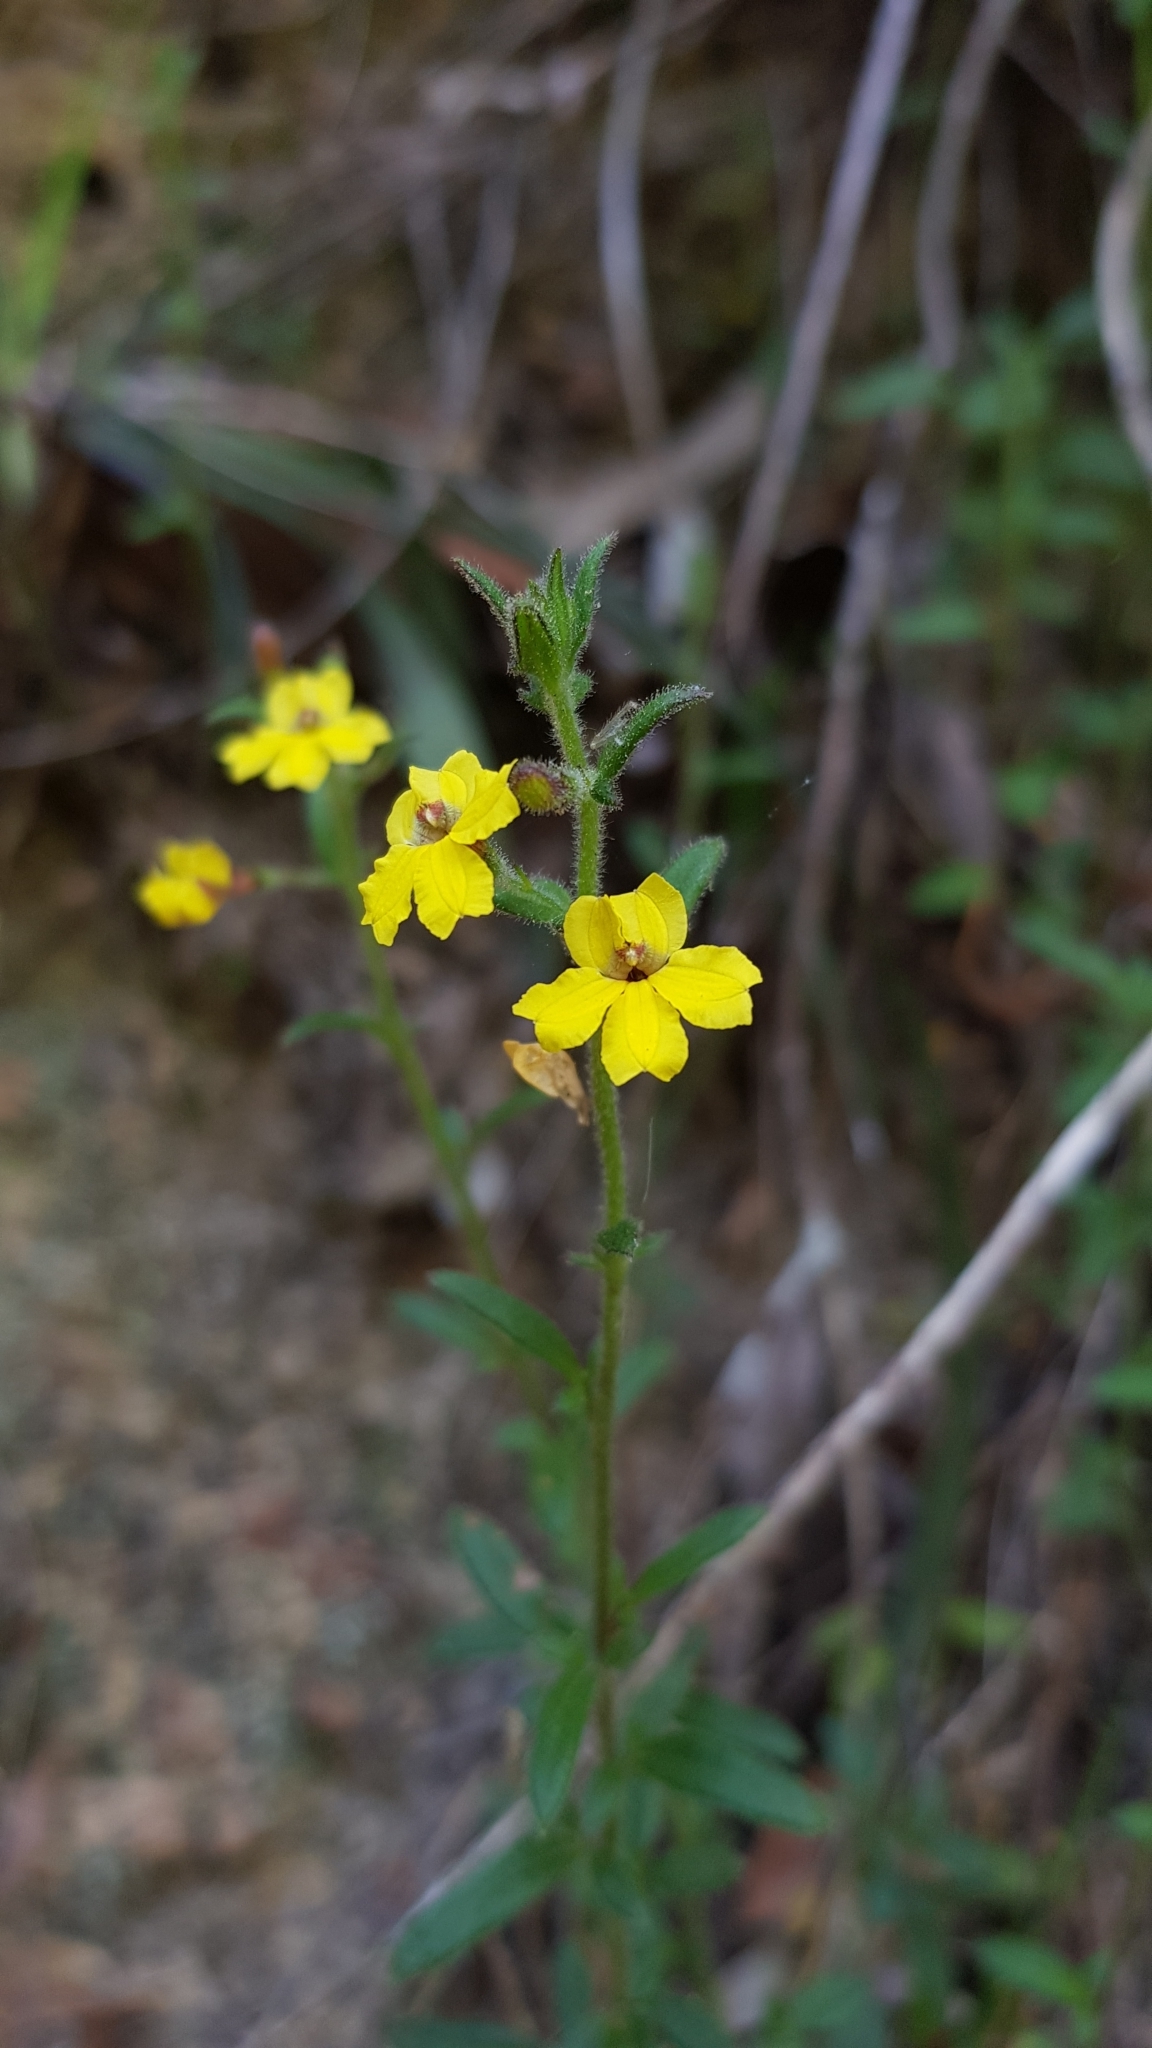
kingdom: Plantae
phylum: Tracheophyta
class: Magnoliopsida
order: Asterales
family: Goodeniaceae
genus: Goodenia
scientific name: Goodenia heterophylla
